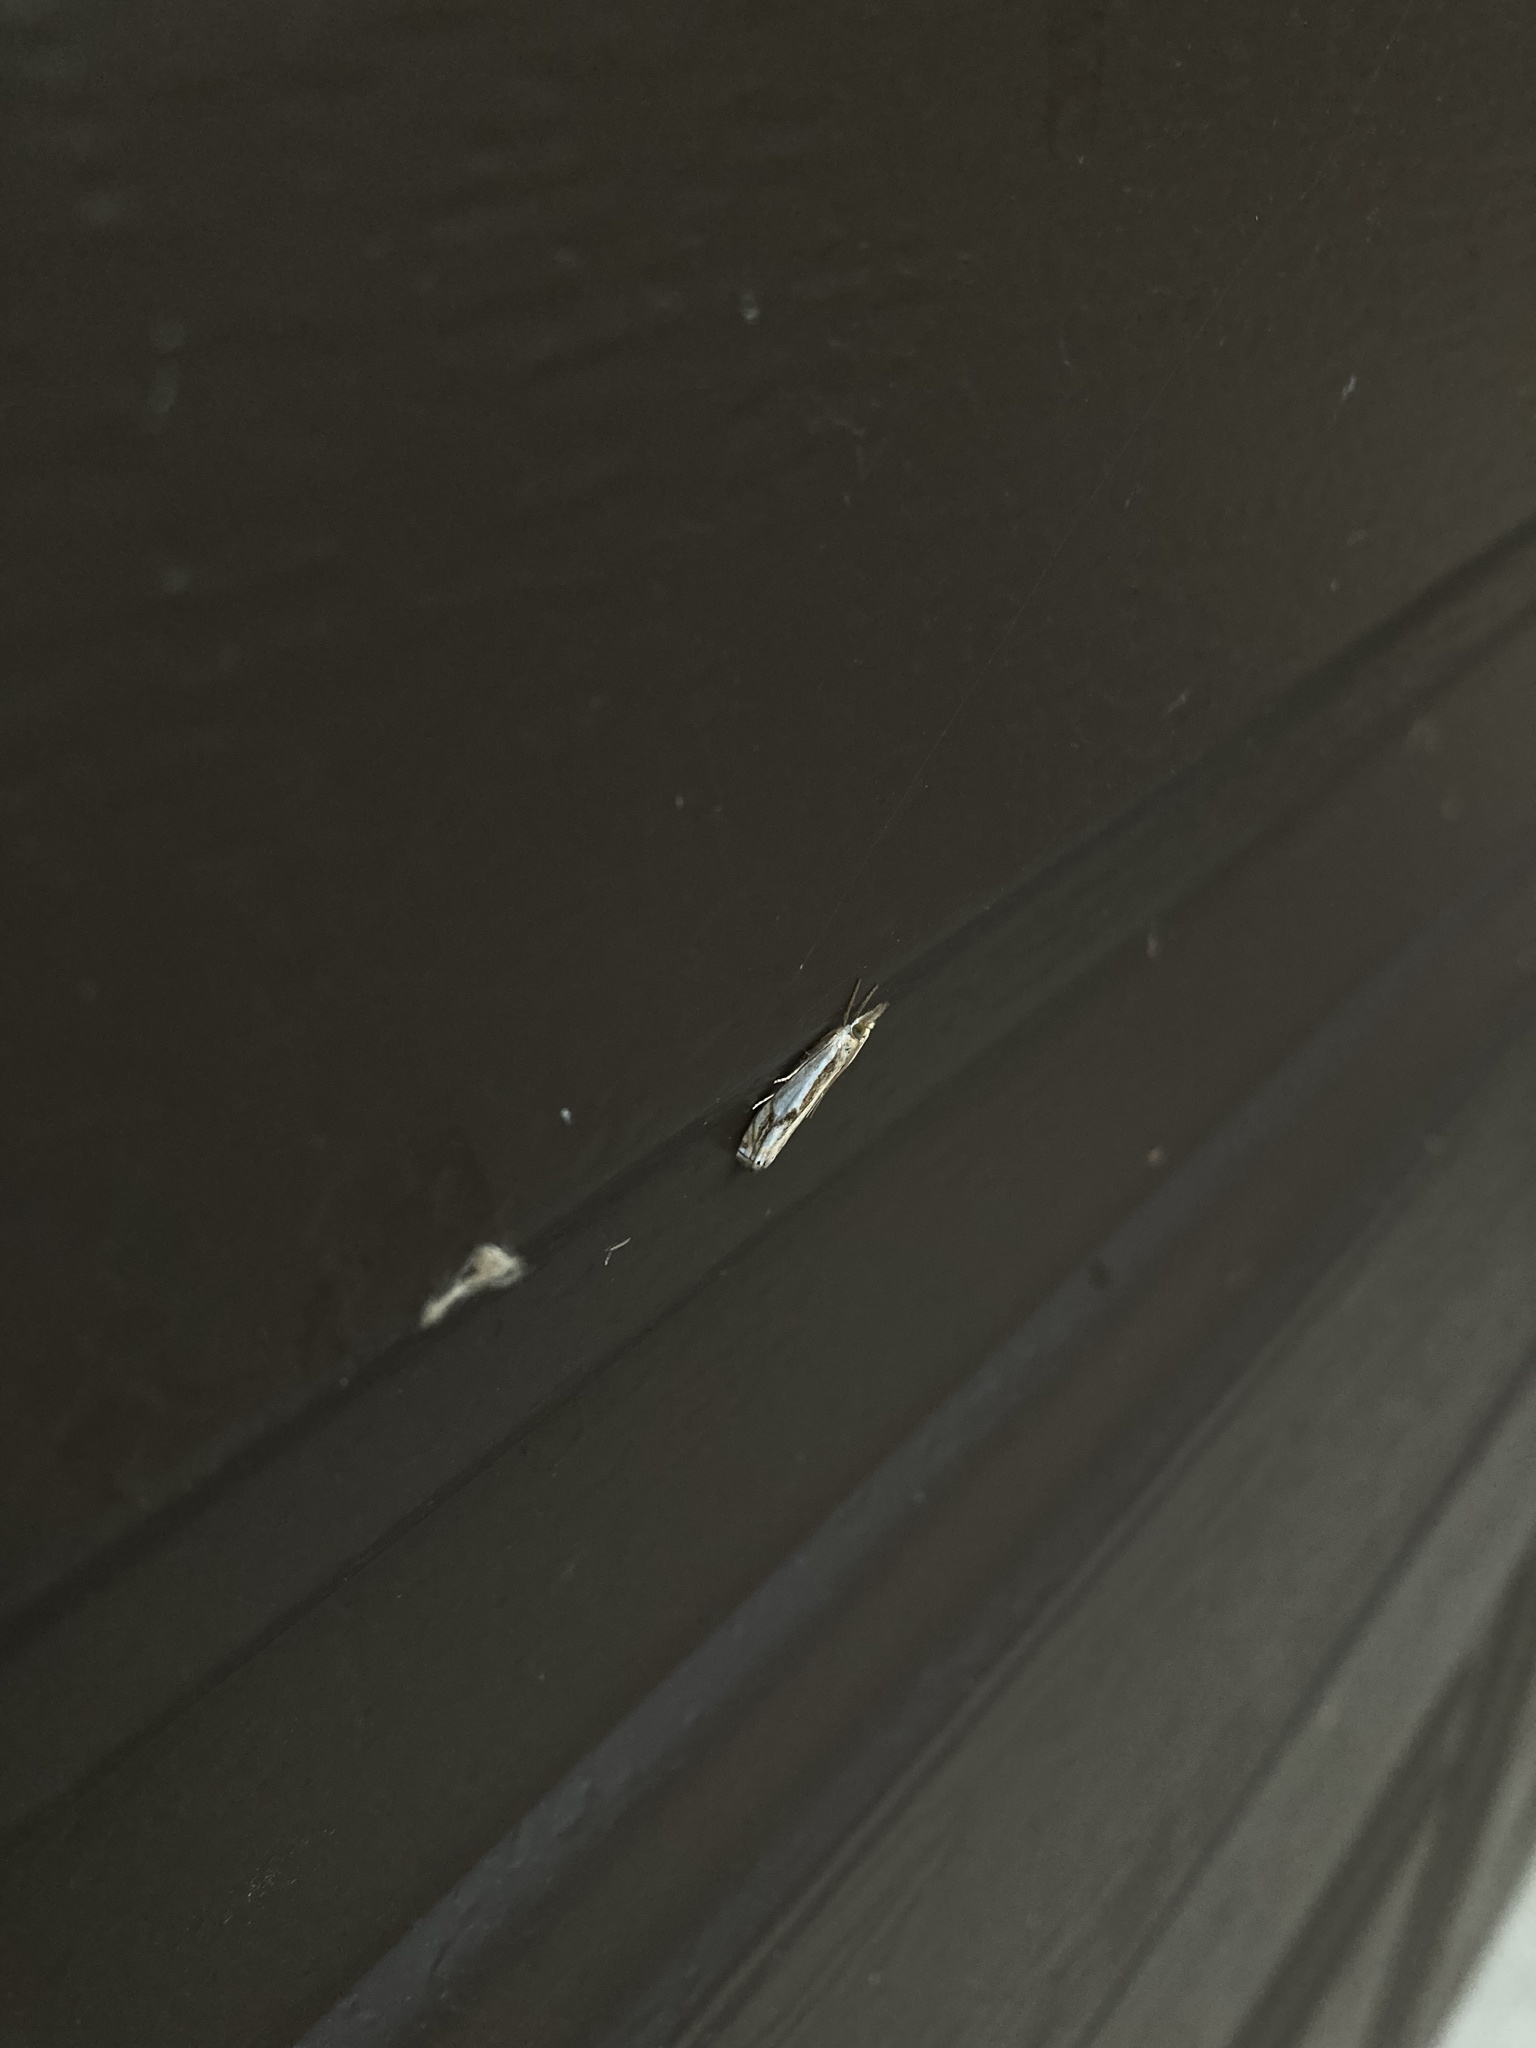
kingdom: Animalia
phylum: Arthropoda
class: Insecta
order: Lepidoptera
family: Crambidae
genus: Crambus
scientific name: Crambus agitatellus
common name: Double-banded grass-veneer
